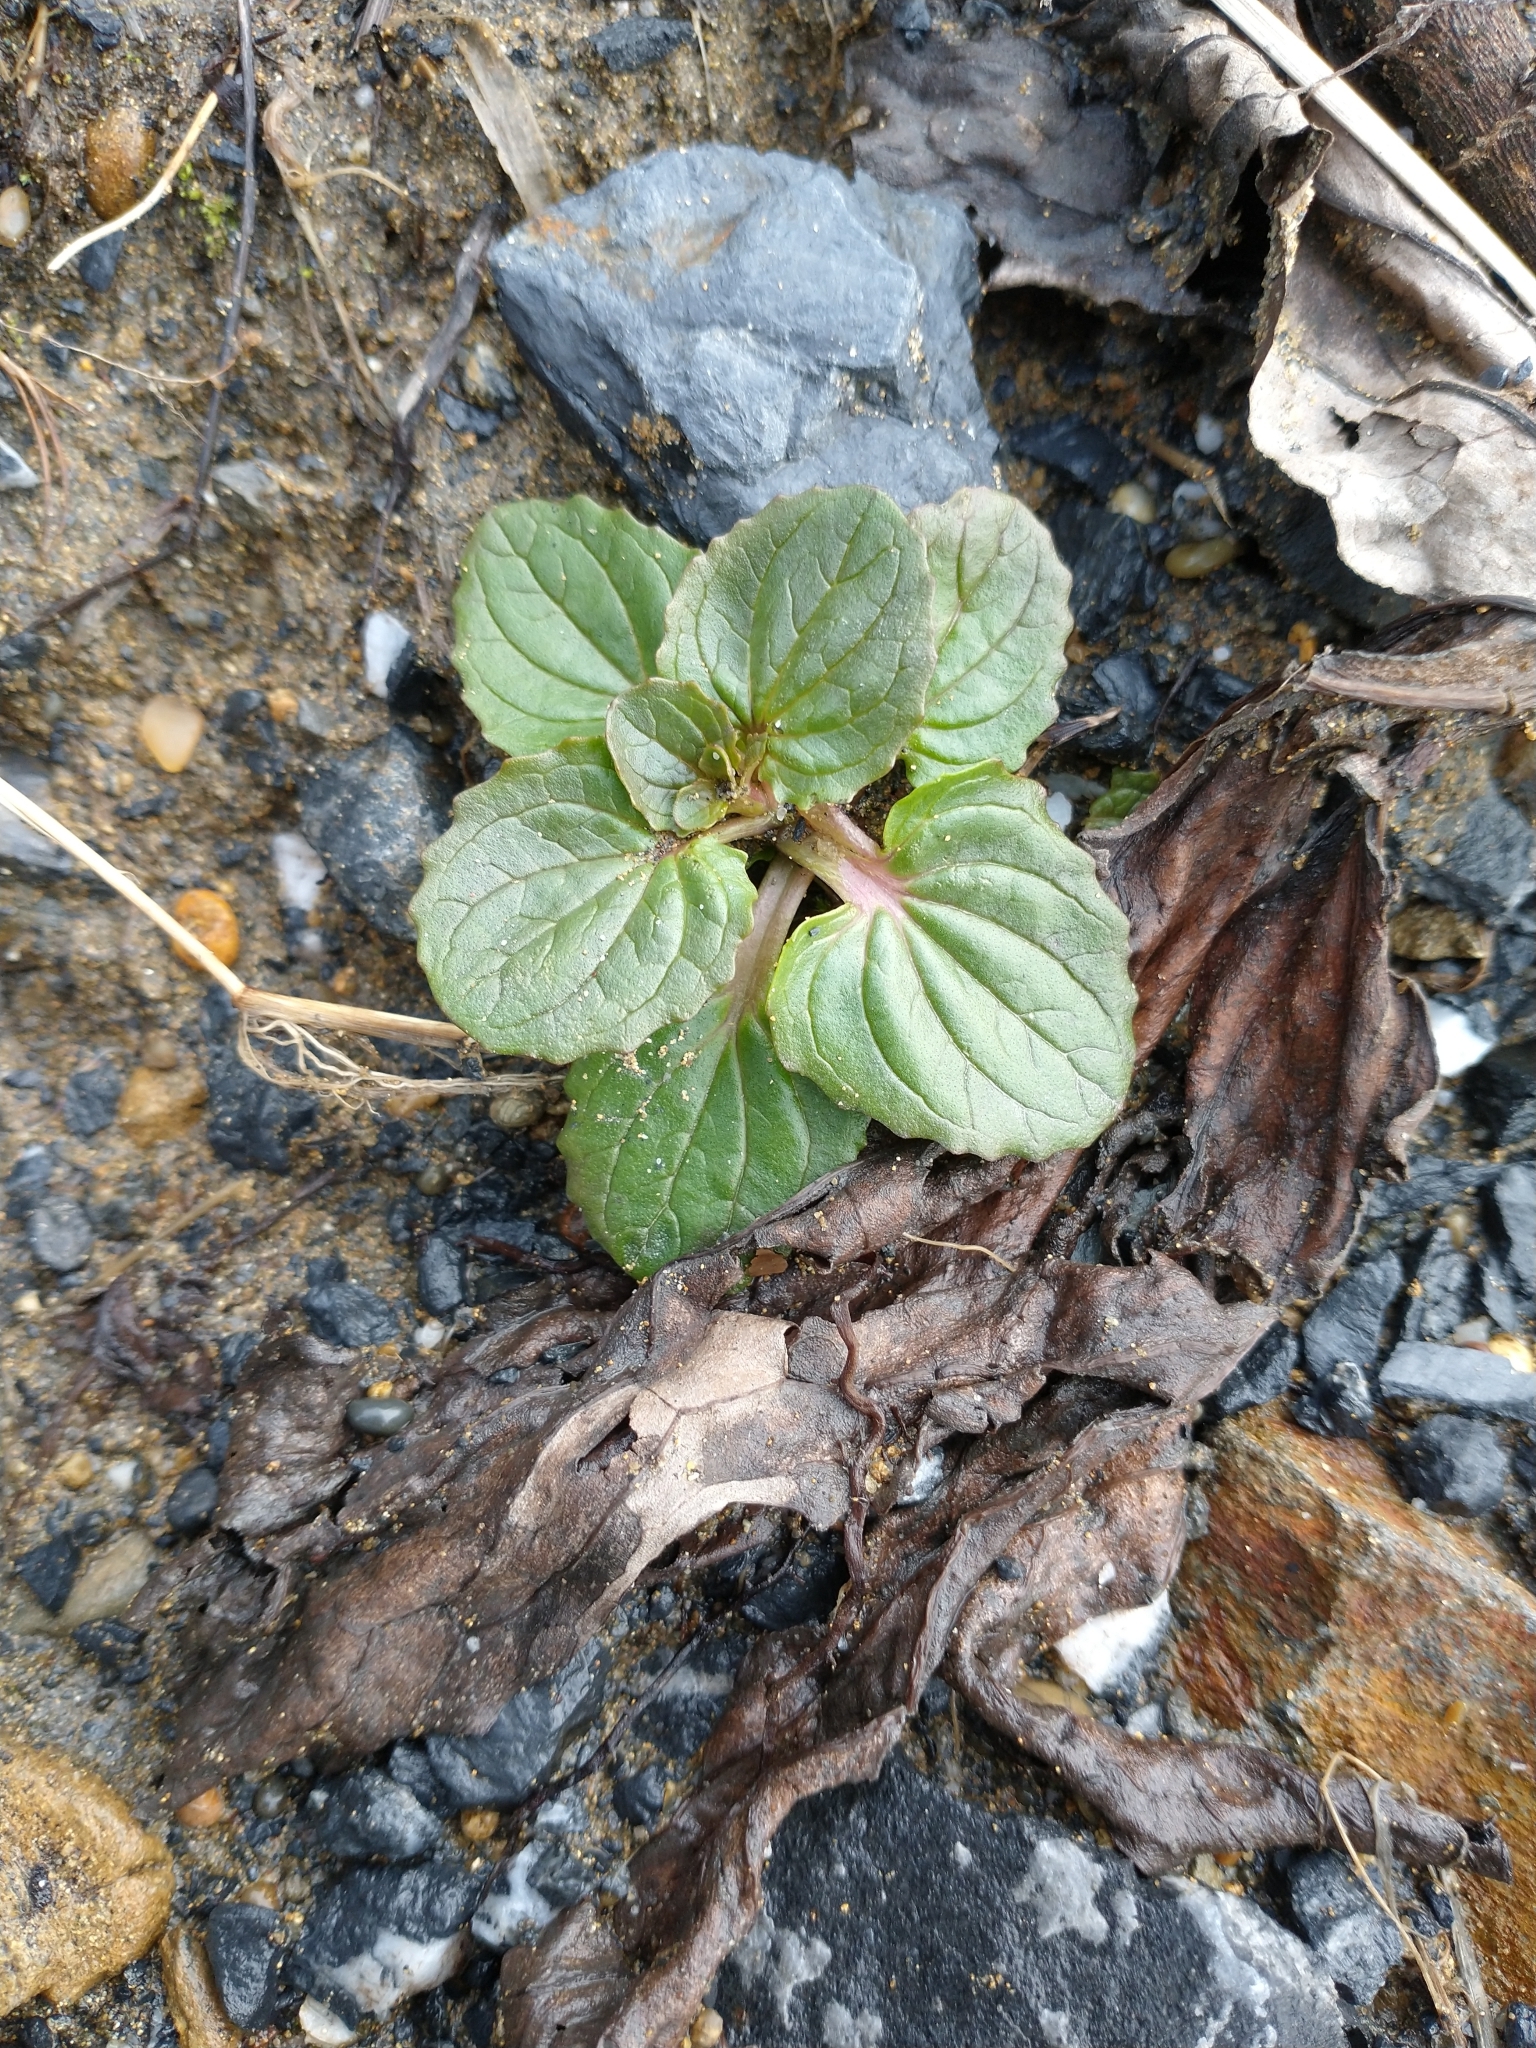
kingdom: Plantae
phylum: Tracheophyta
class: Magnoliopsida
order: Lamiales
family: Phrymaceae
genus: Erythranthe
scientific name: Erythranthe grandis
